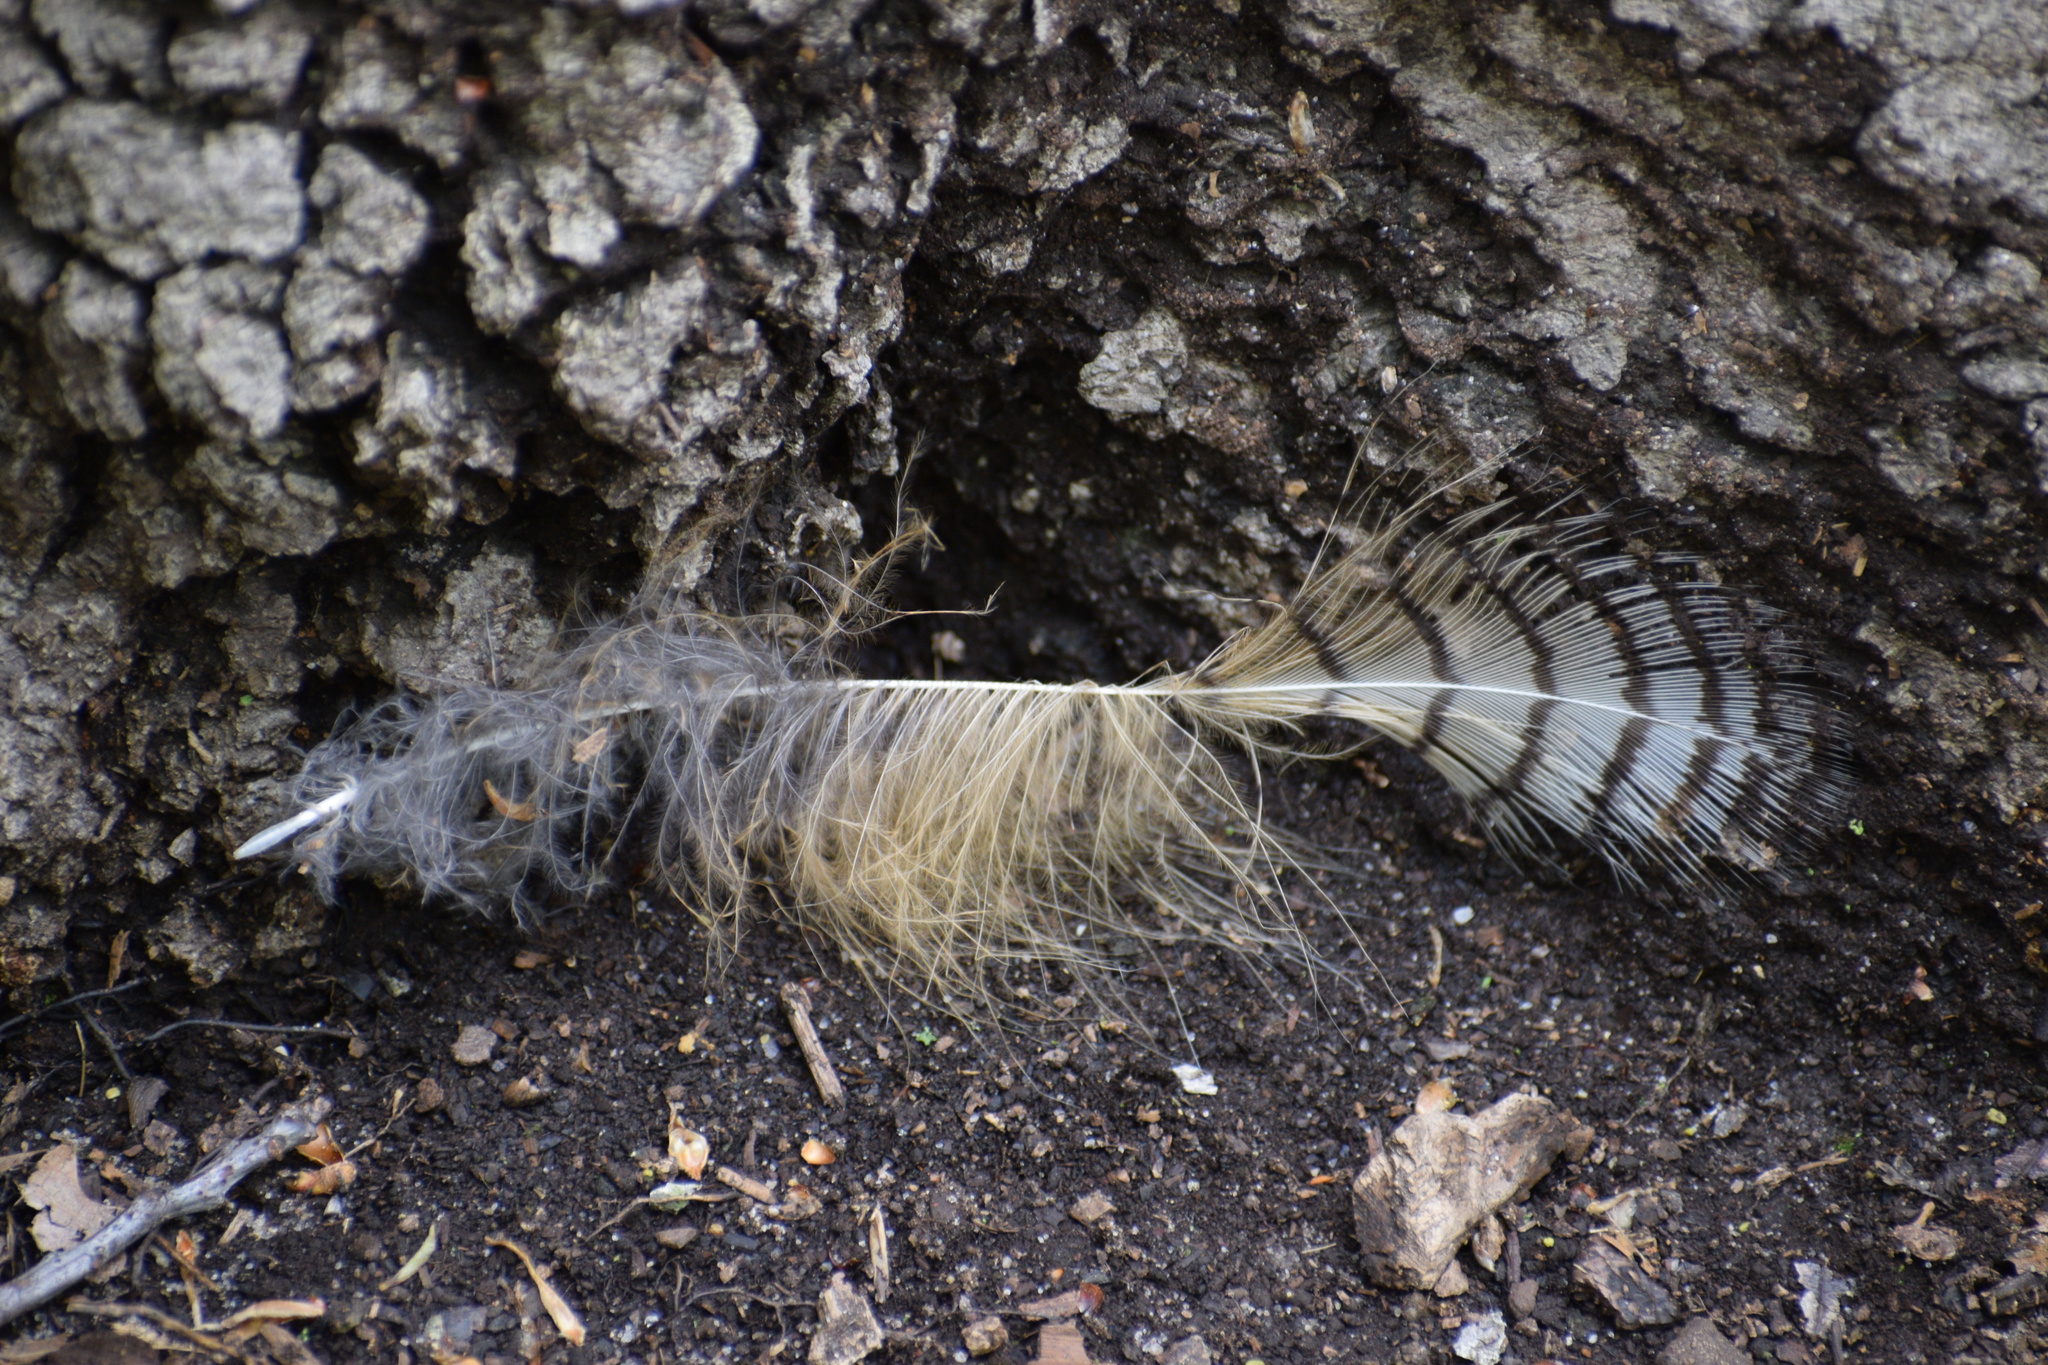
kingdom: Animalia
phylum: Chordata
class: Aves
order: Strigiformes
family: Strigidae
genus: Bubo
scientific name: Bubo virginianus
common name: Great horned owl
